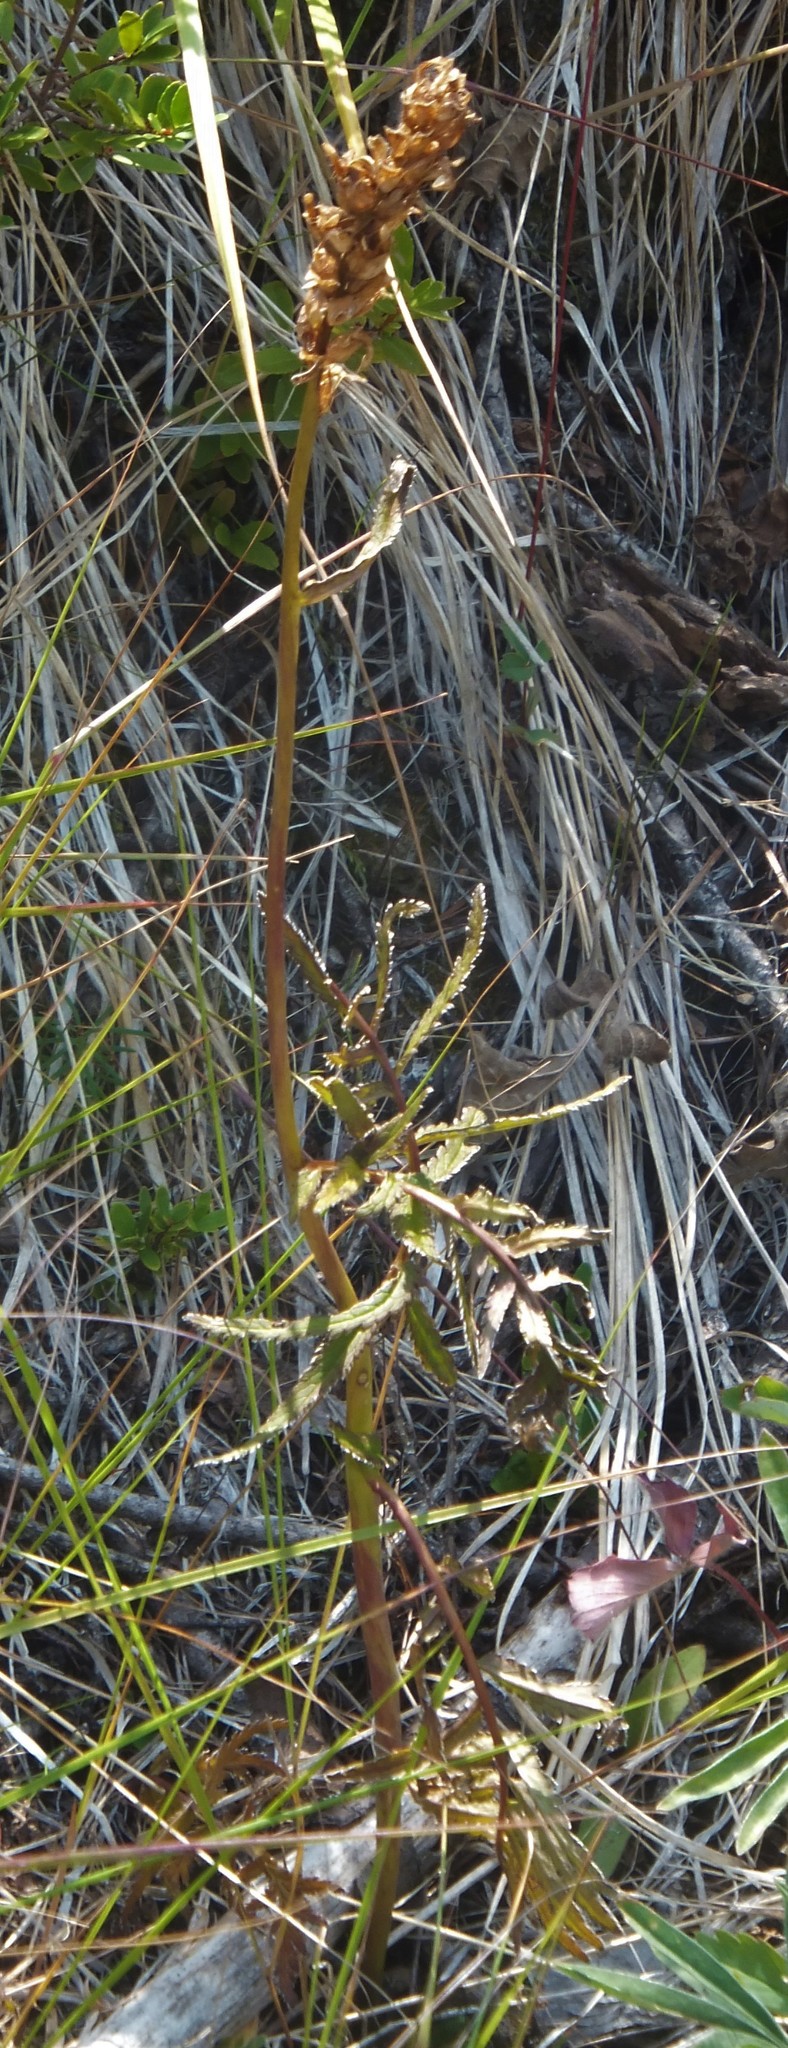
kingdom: Plantae
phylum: Tracheophyta
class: Magnoliopsida
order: Lamiales
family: Orobanchaceae
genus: Pedicularis
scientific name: Pedicularis bracteosa
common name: Bracted lousewort
